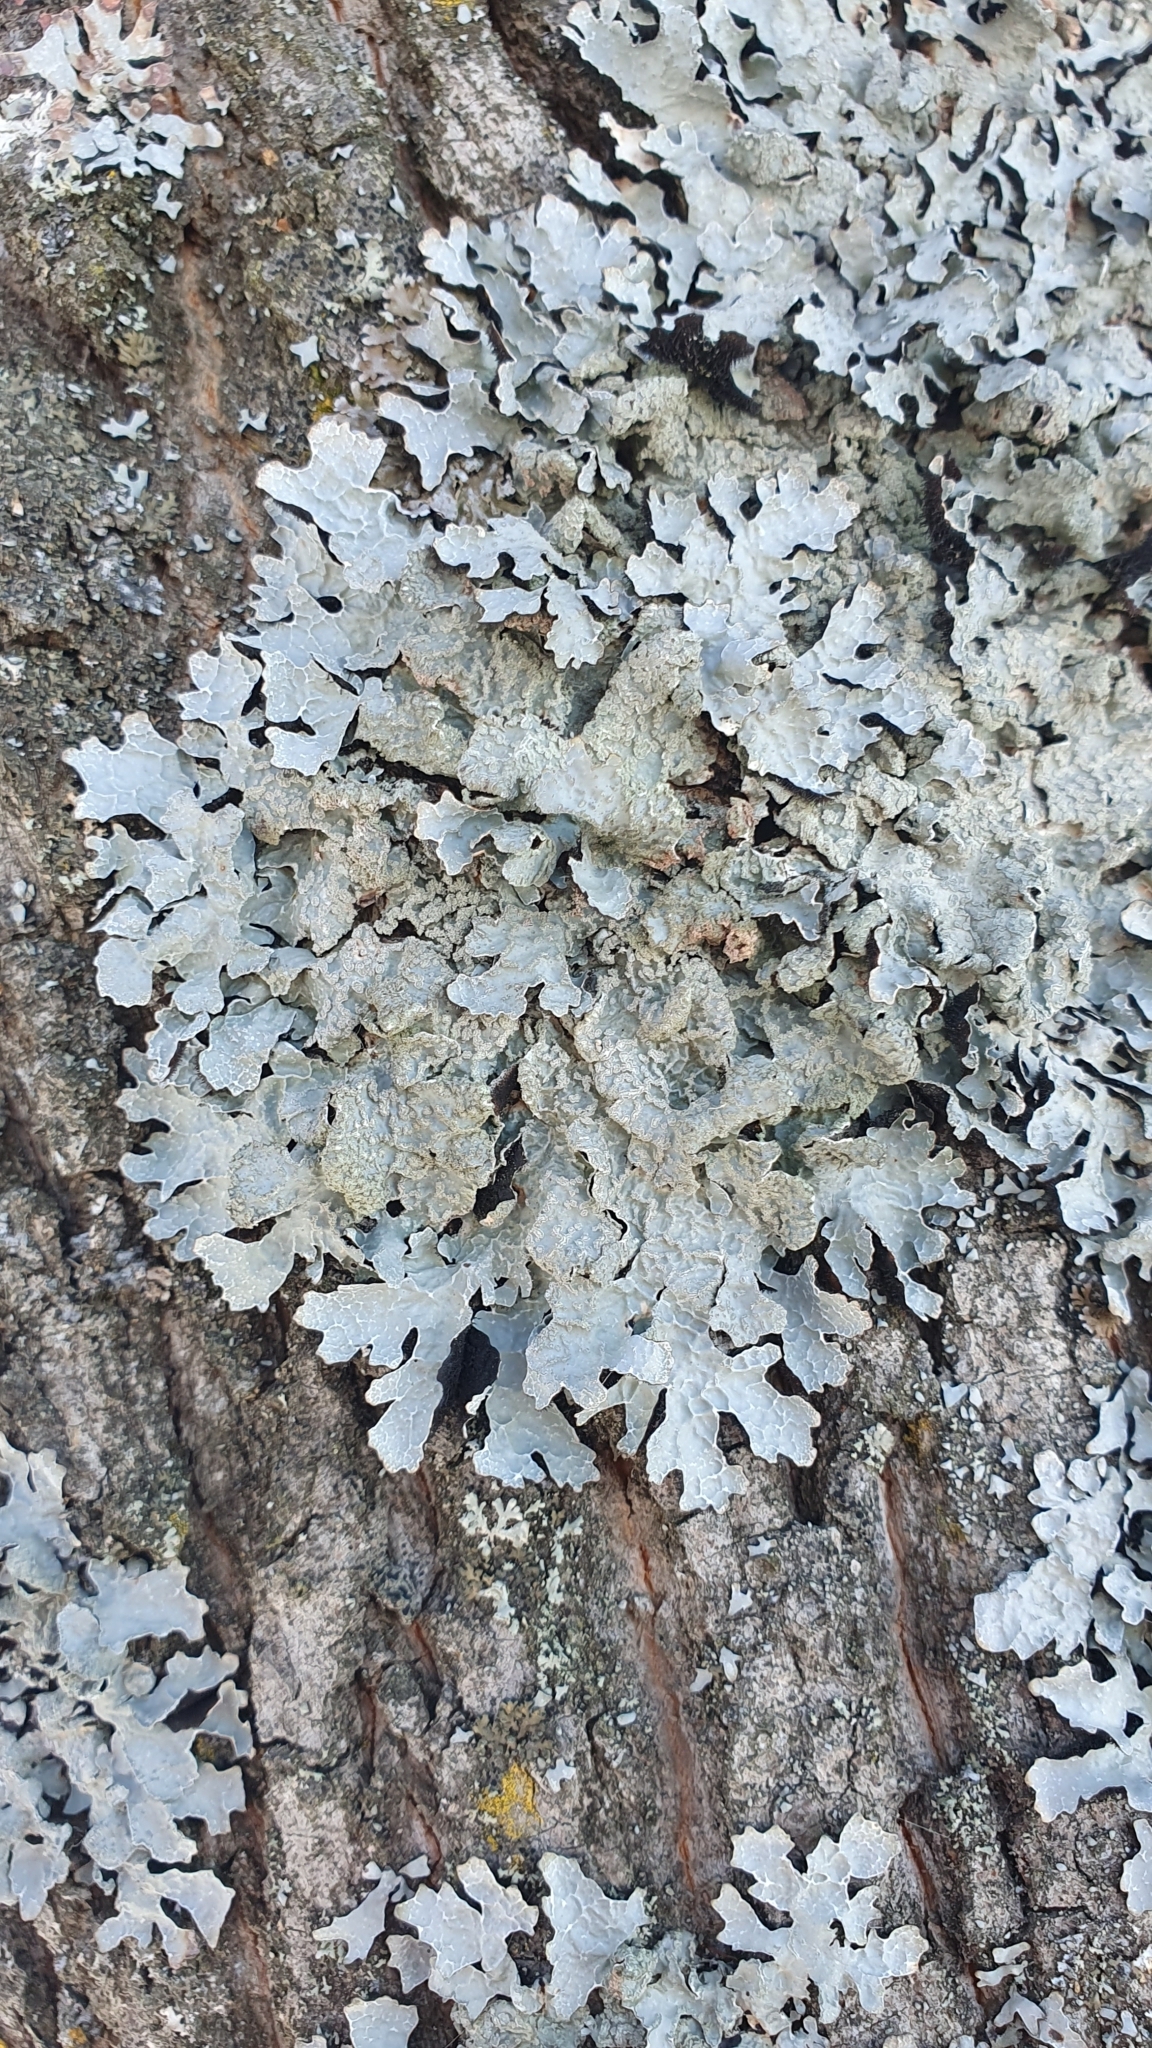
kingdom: Fungi
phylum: Ascomycota
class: Lecanoromycetes
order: Lecanorales
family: Parmeliaceae
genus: Parmelia
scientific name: Parmelia sulcata
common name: Netted shield lichen
